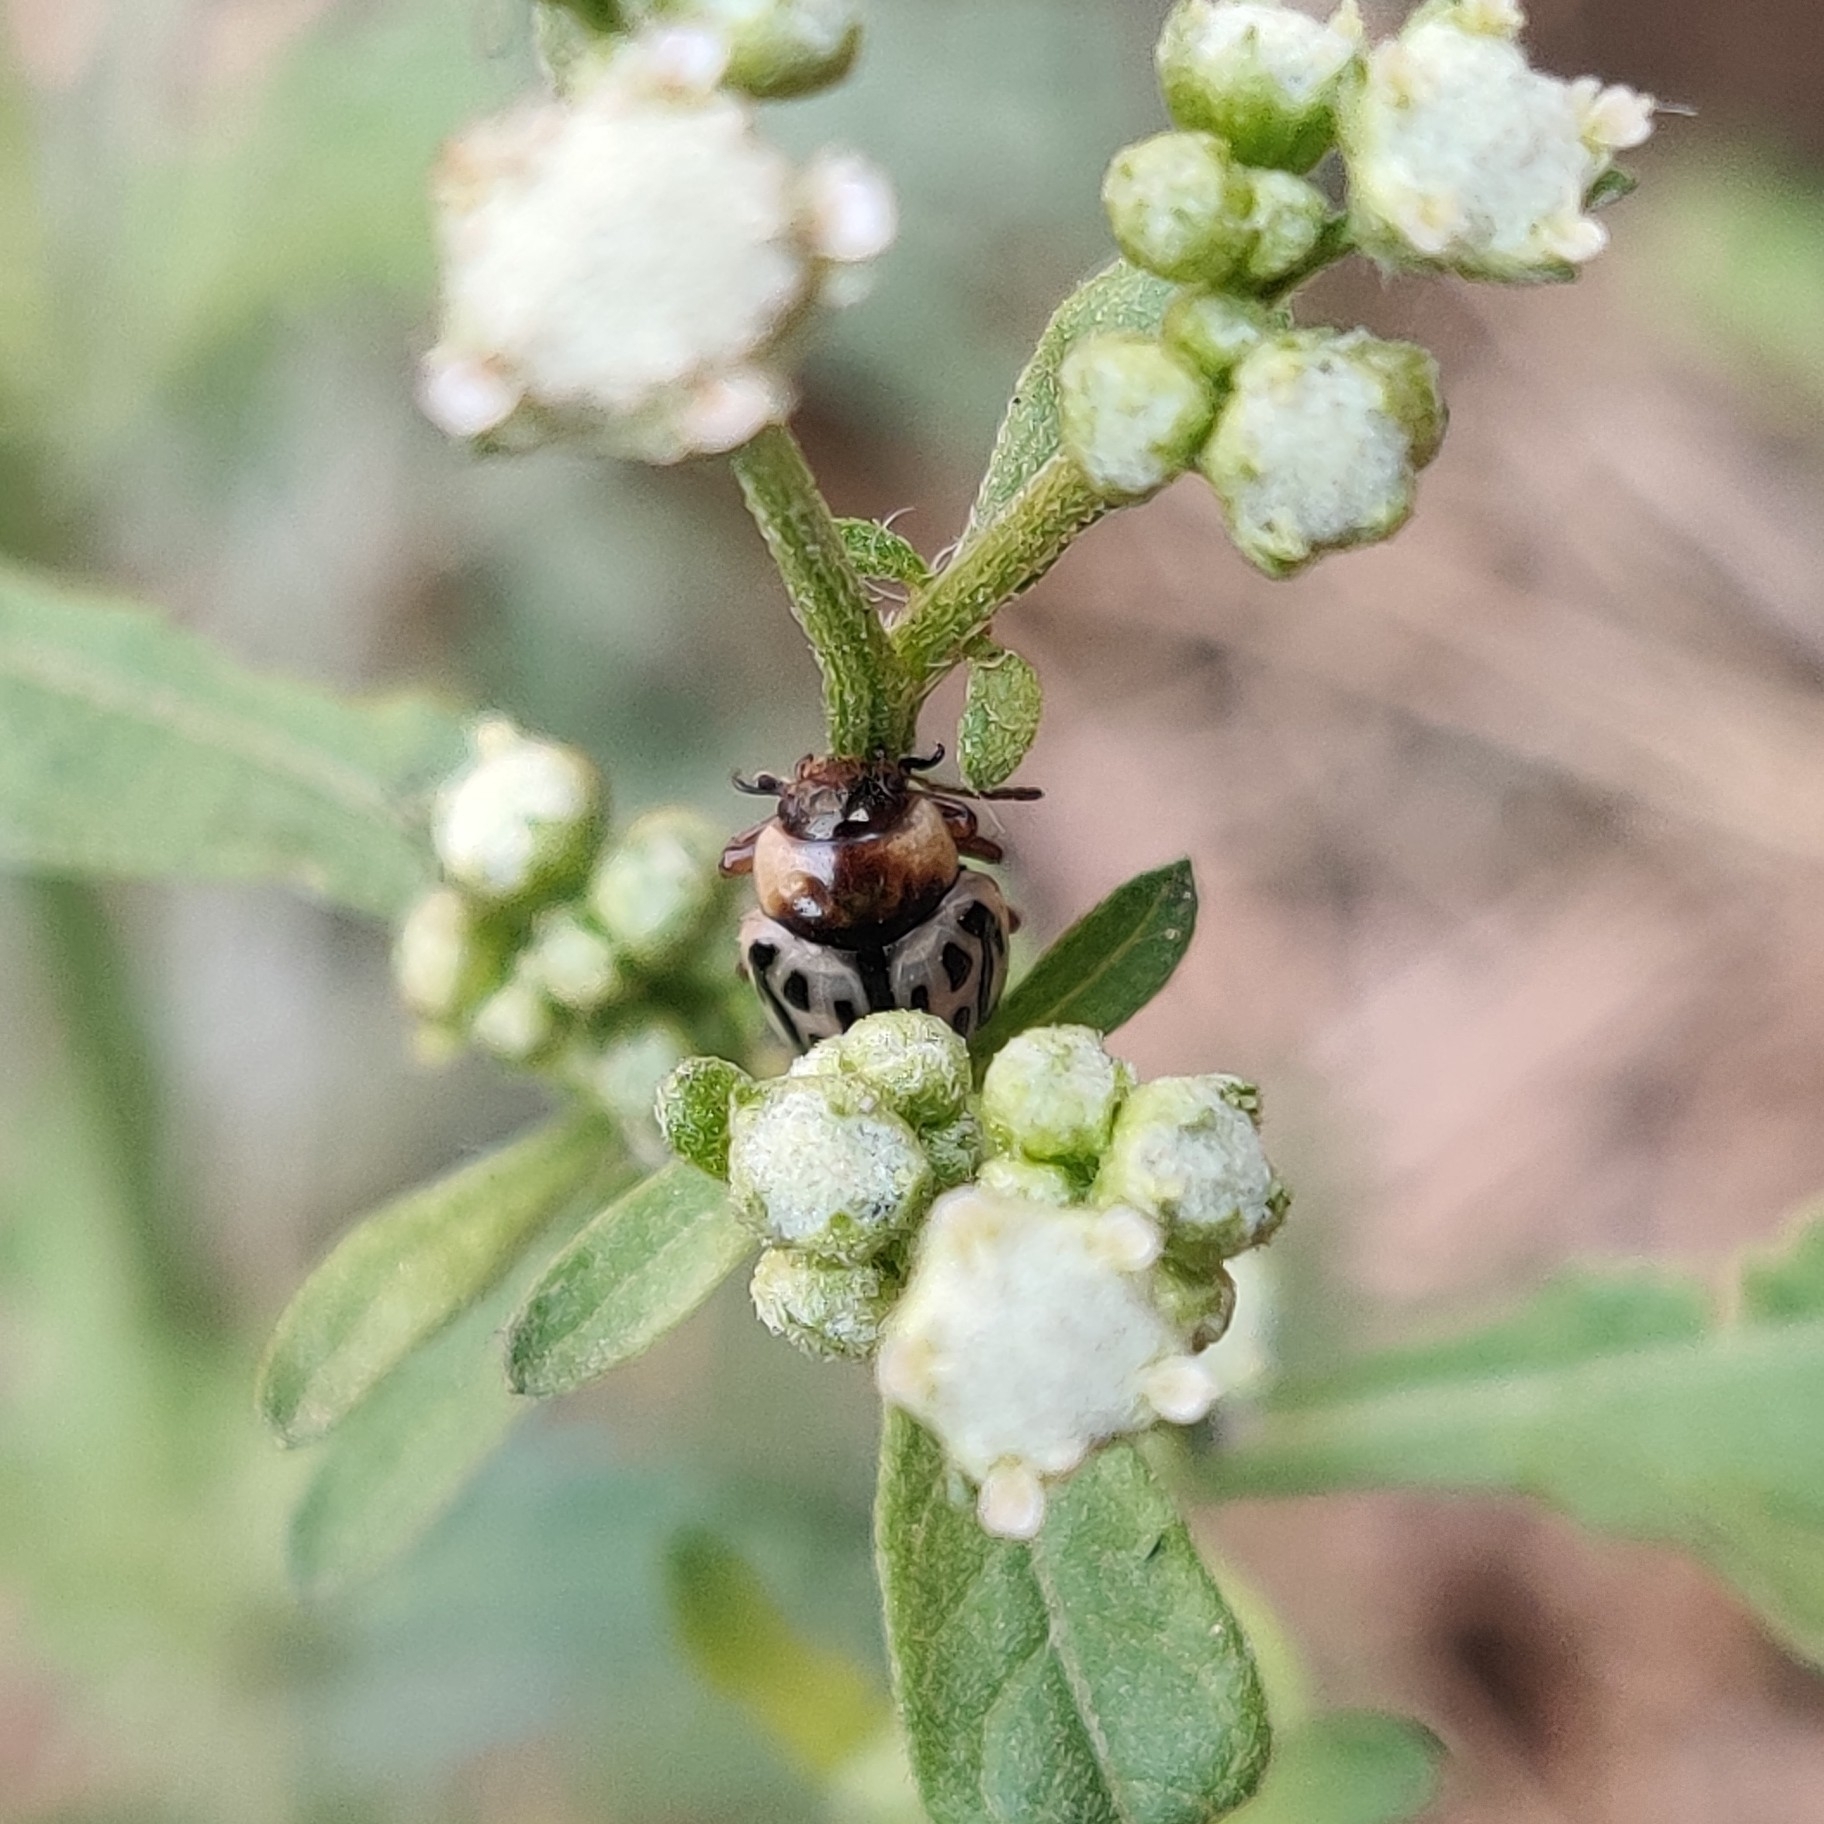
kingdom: Animalia
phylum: Arthropoda
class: Insecta
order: Coleoptera
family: Chrysomelidae
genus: Calligrapha
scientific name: Calligrapha
